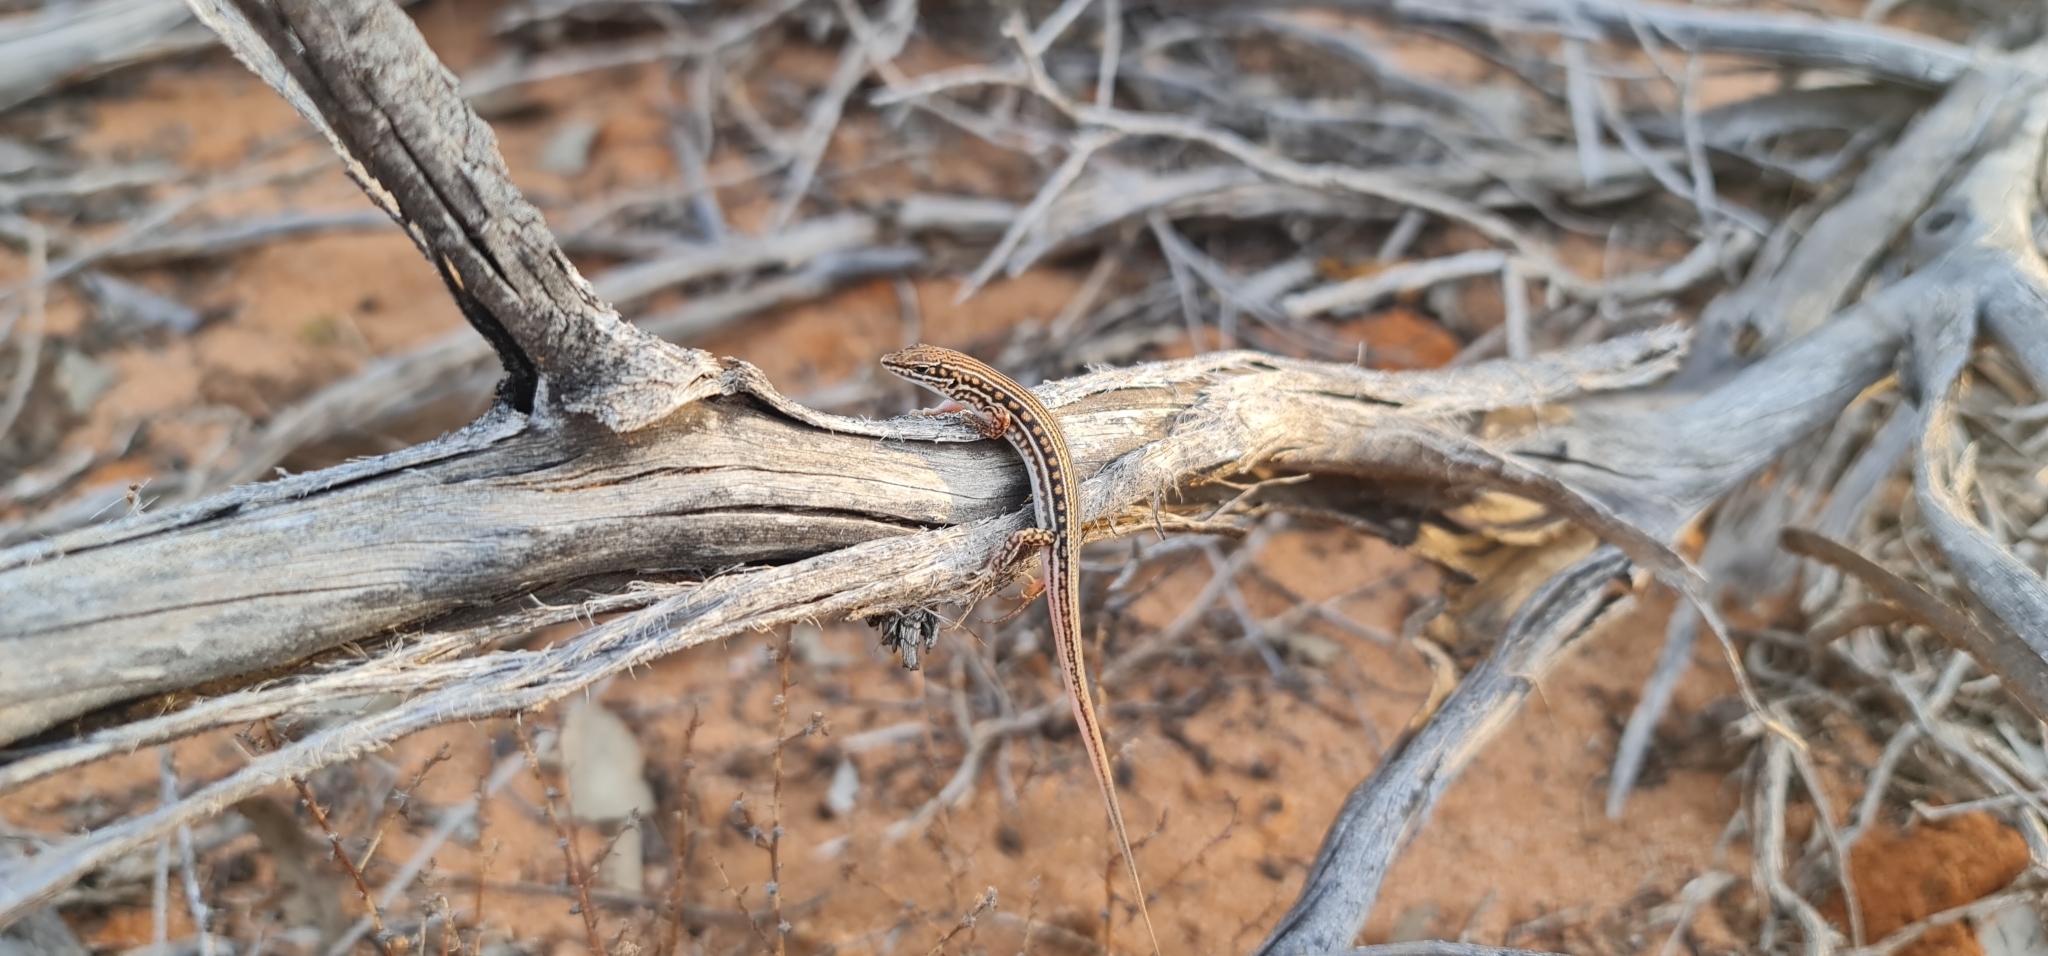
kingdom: Animalia
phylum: Chordata
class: Squamata
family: Scincidae
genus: Ctenotus
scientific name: Ctenotus schomburgkii
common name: Barred wedge-snout ctenotus
